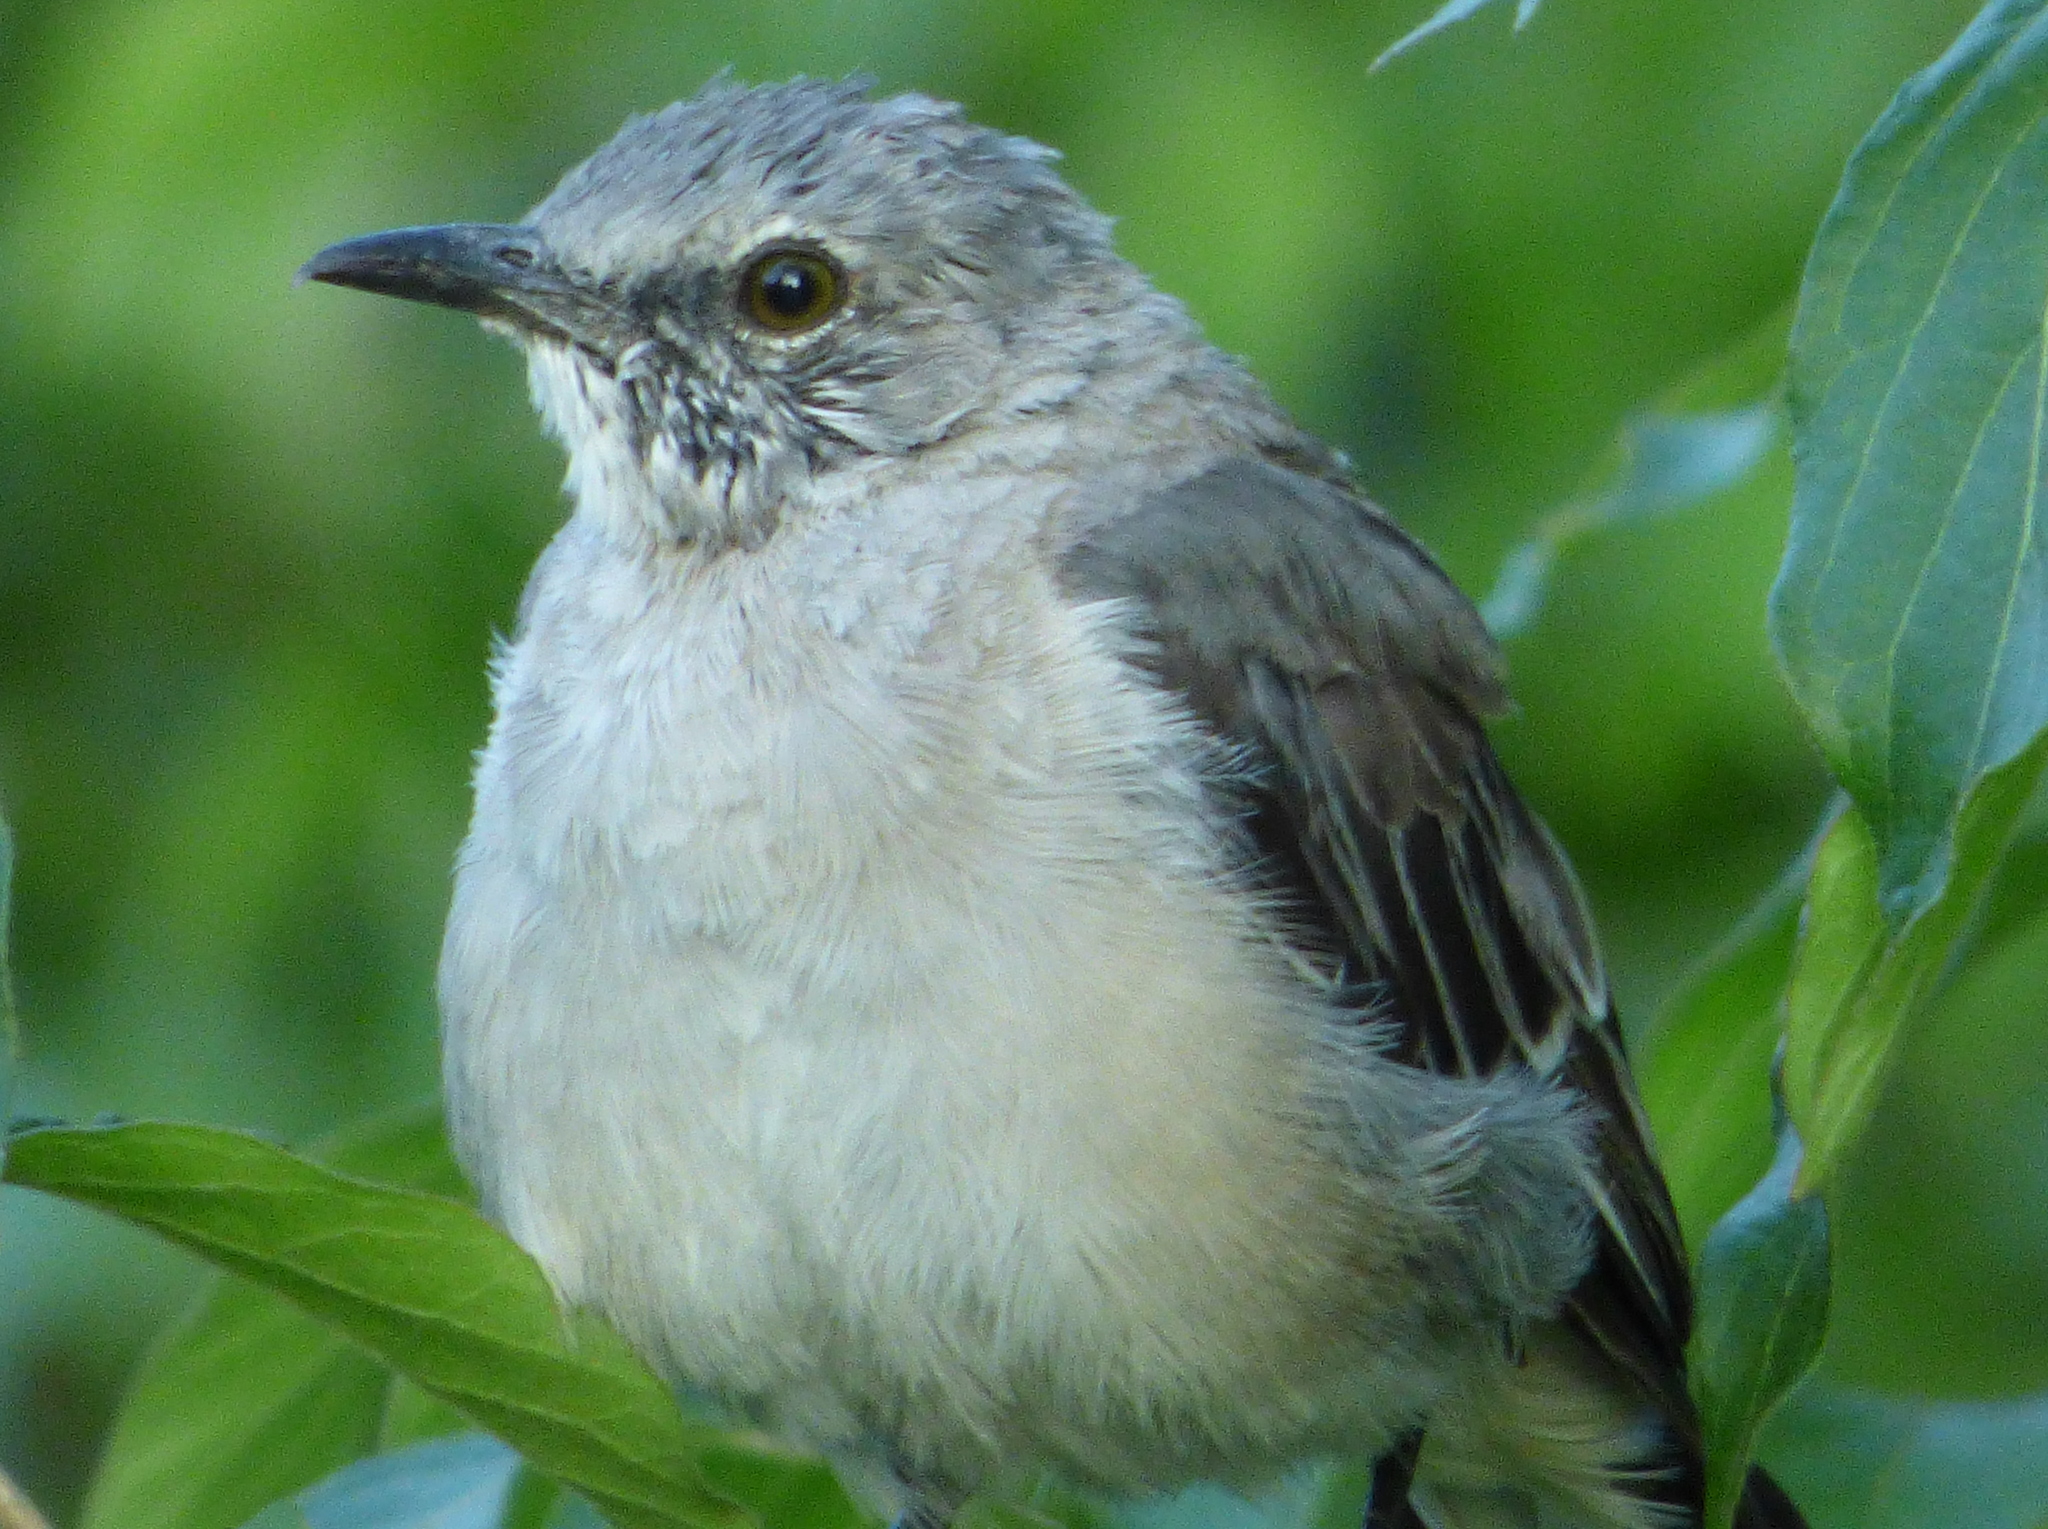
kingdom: Animalia
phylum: Chordata
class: Aves
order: Passeriformes
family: Mimidae
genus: Mimus
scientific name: Mimus polyglottos
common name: Northern mockingbird
